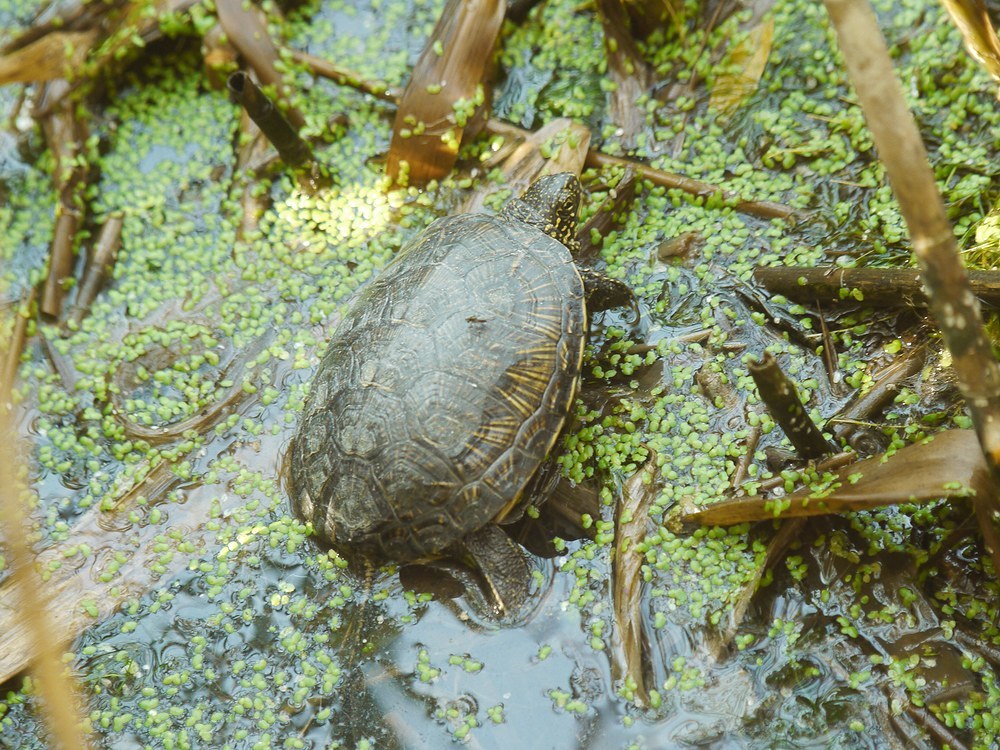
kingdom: Animalia
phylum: Chordata
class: Testudines
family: Emydidae
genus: Emys
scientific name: Emys orbicularis
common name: European pond turtle
